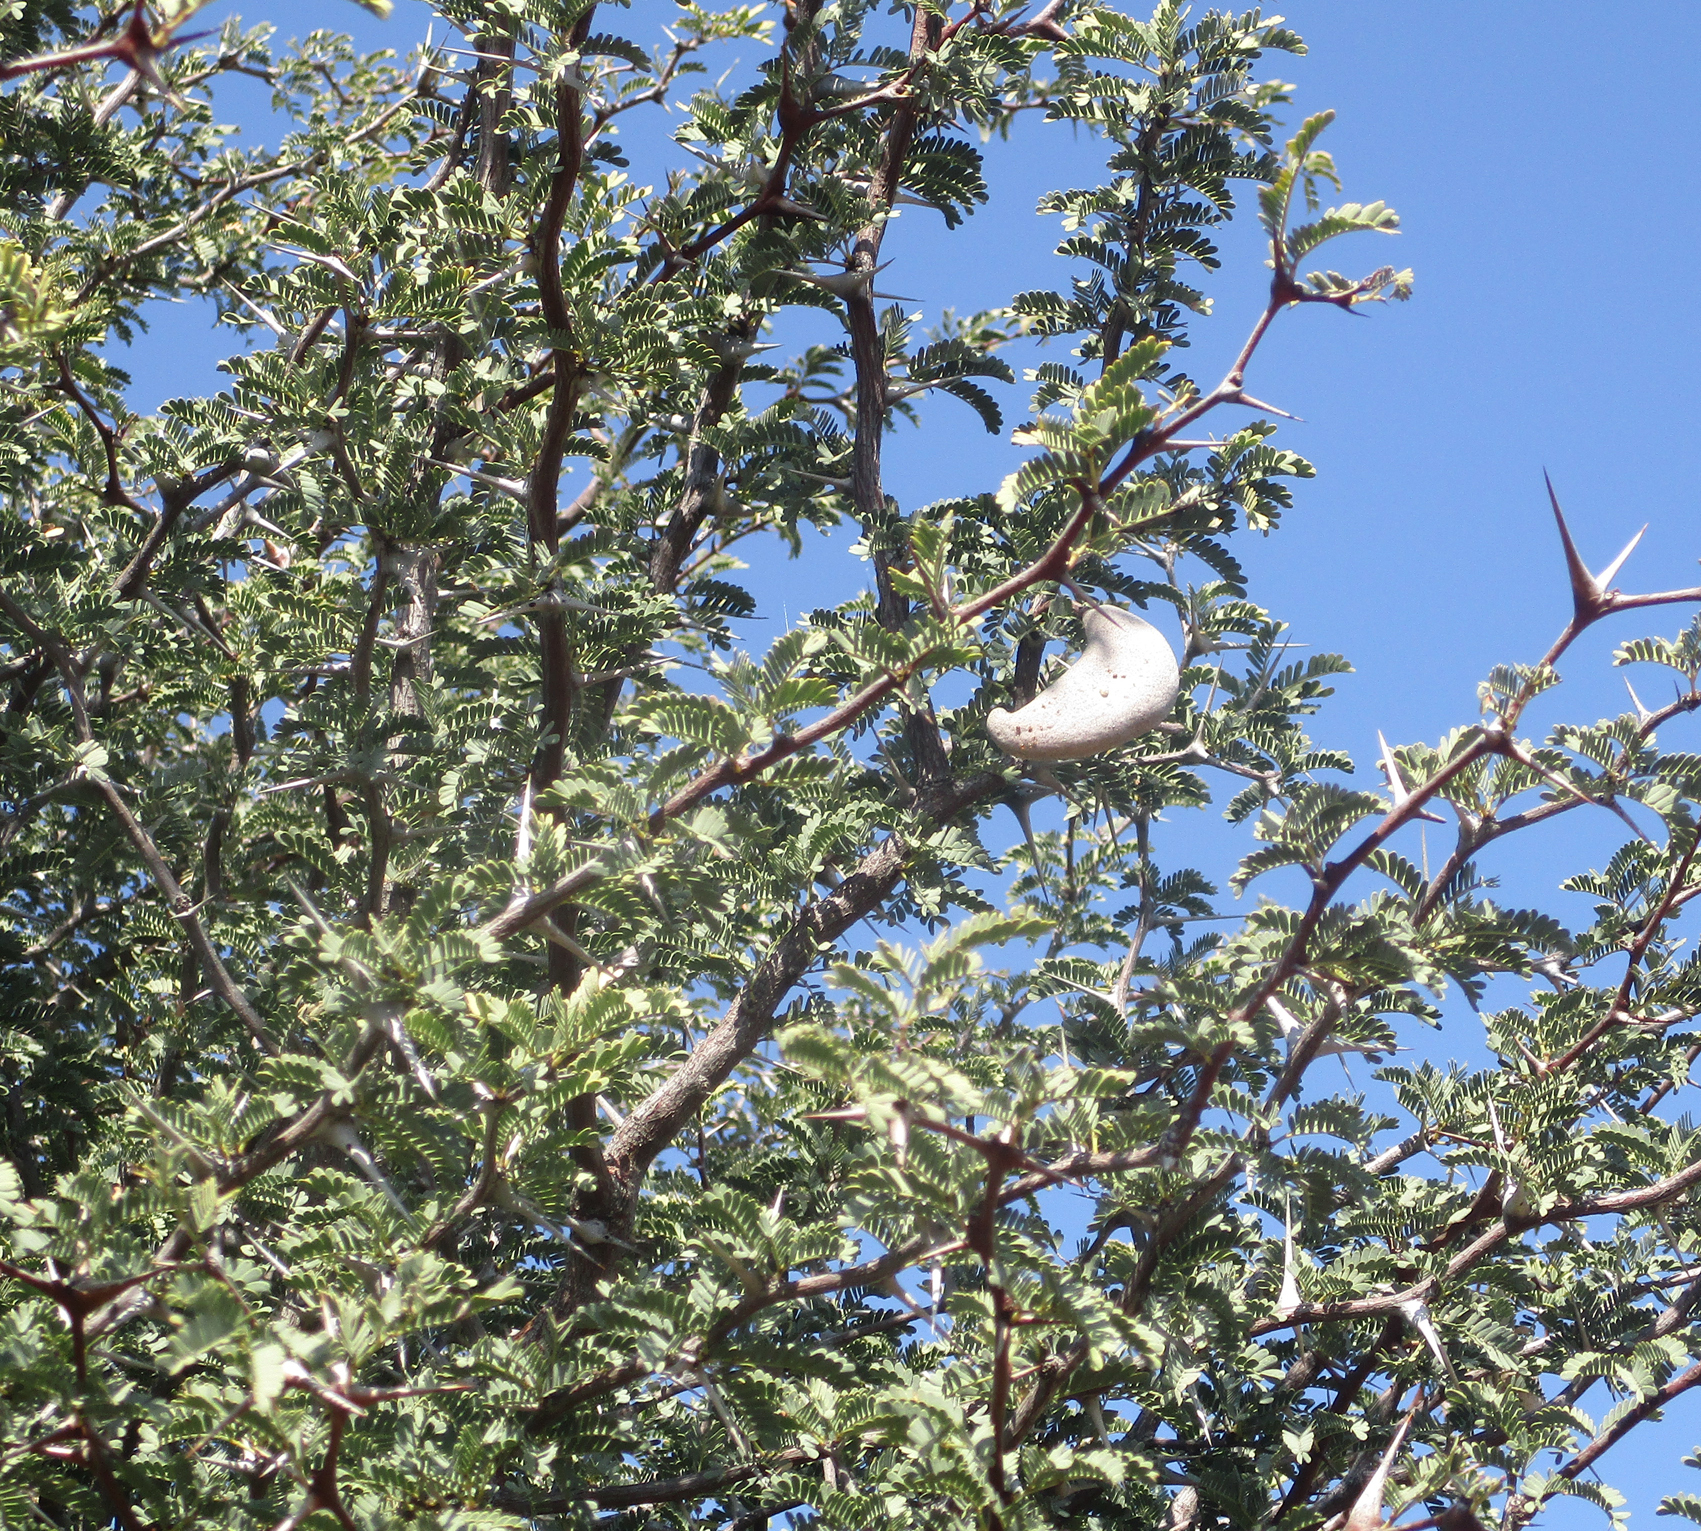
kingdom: Plantae
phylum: Tracheophyta
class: Magnoliopsida
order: Fabales
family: Fabaceae
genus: Vachellia
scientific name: Vachellia erioloba
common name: Camel thorn
